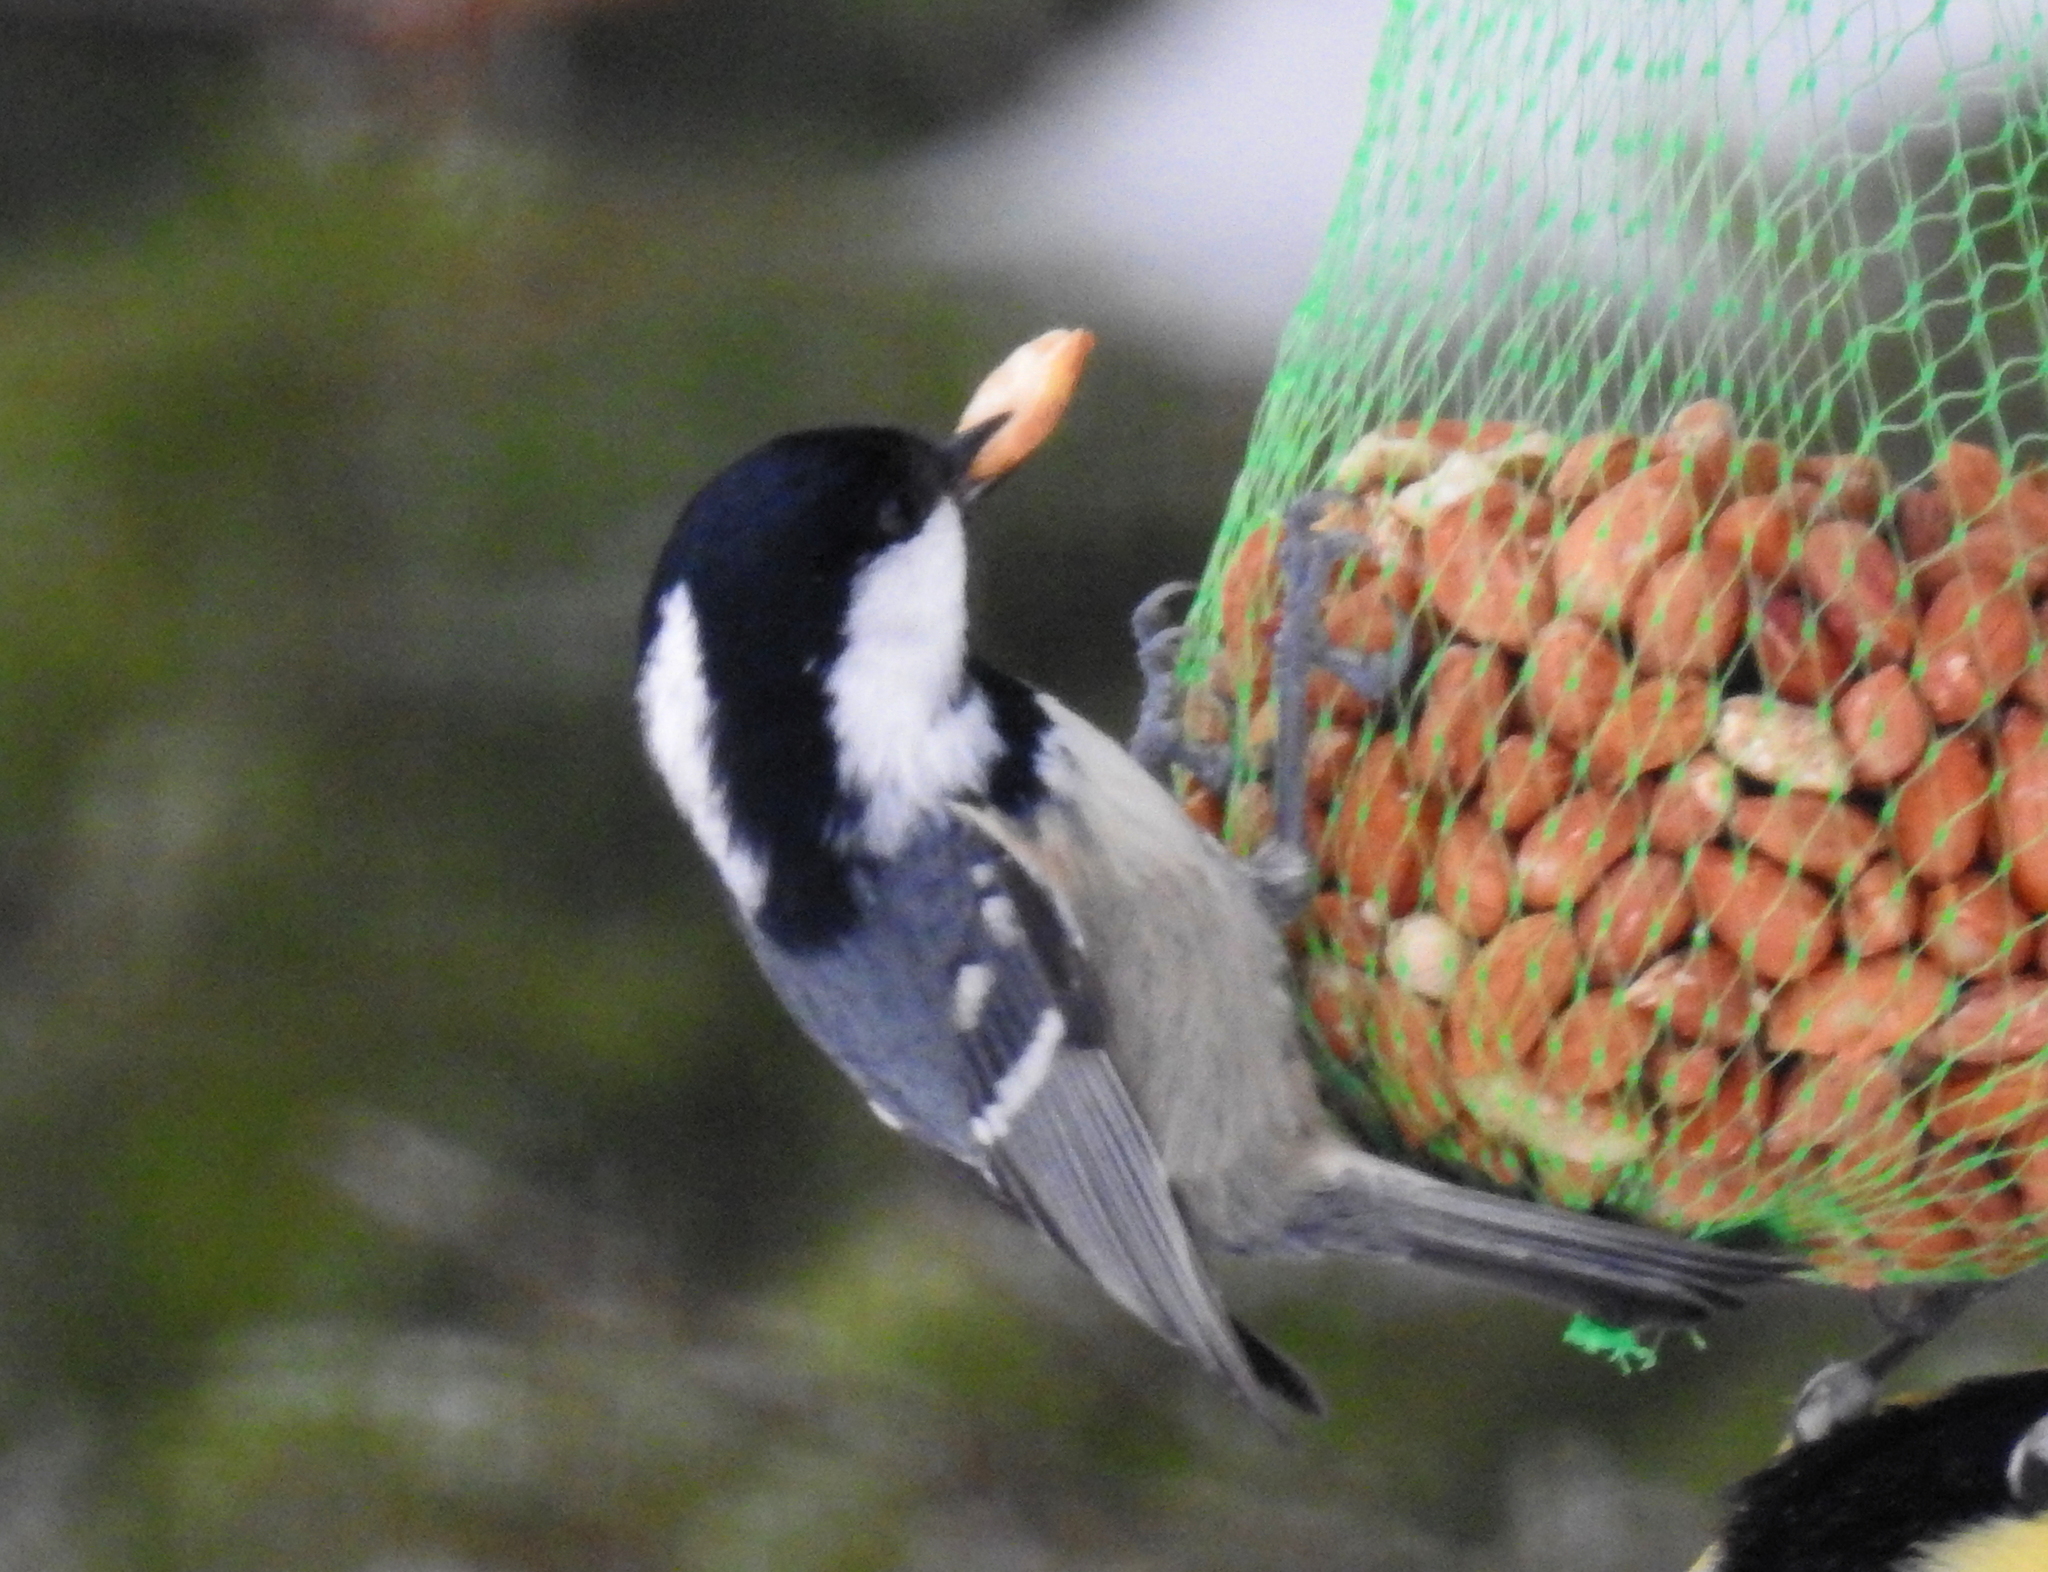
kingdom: Animalia
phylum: Chordata
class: Aves
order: Passeriformes
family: Paridae
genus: Periparus
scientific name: Periparus ater
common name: Coal tit
